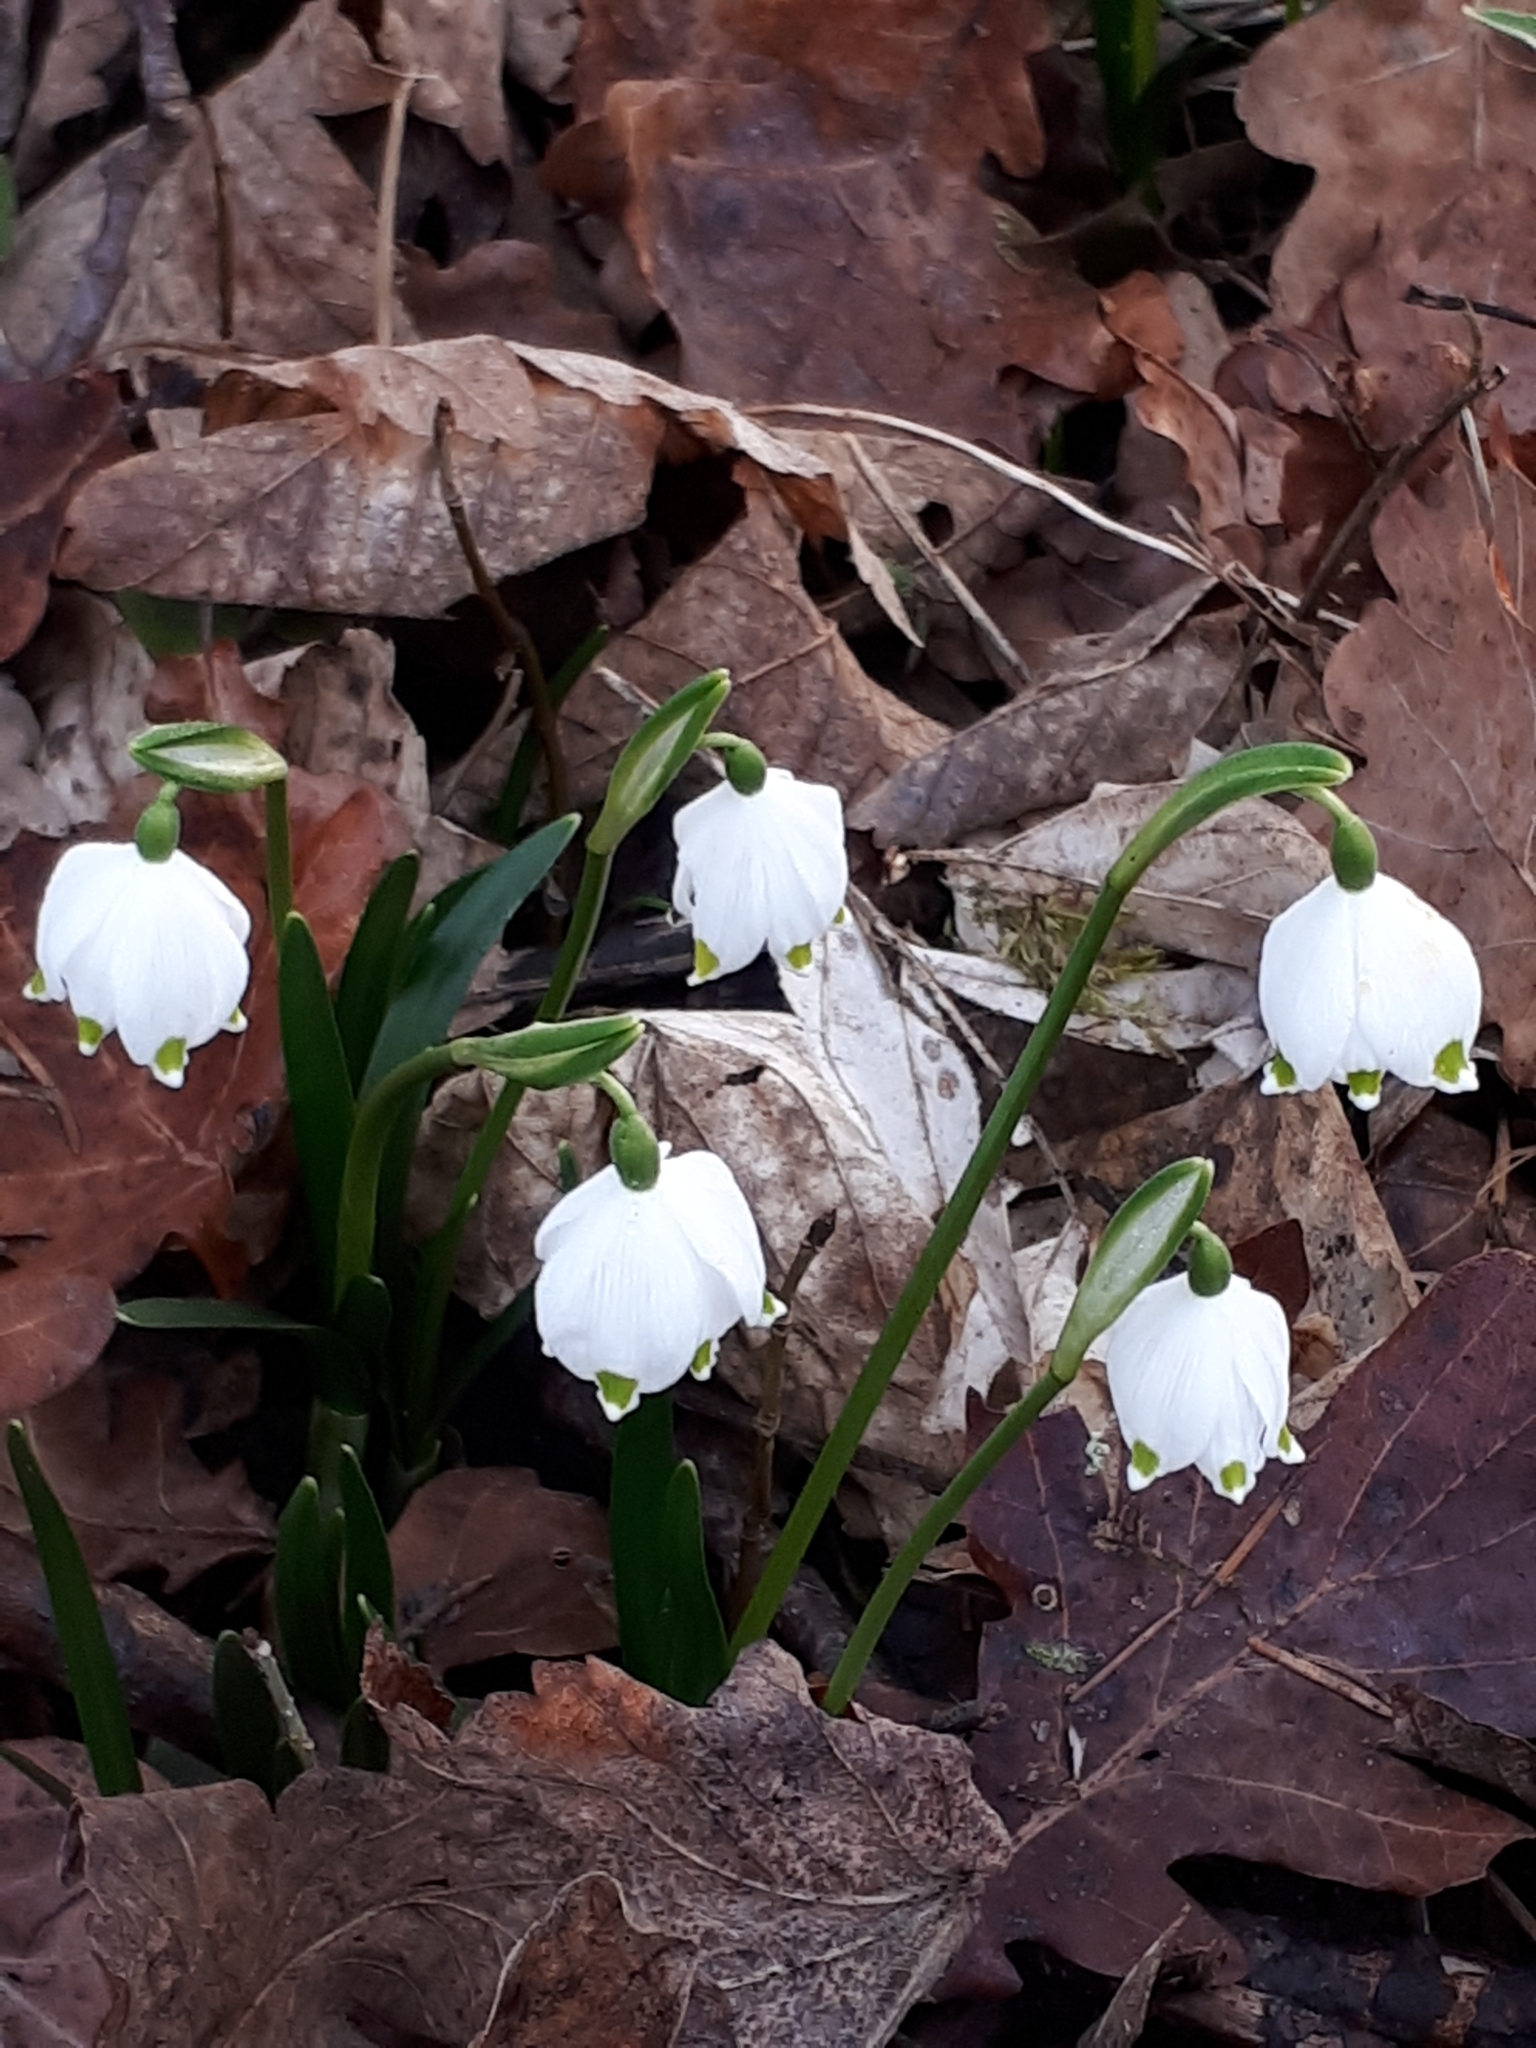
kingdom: Plantae
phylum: Tracheophyta
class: Liliopsida
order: Asparagales
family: Amaryllidaceae
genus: Leucojum
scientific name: Leucojum vernum
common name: Spring snowflake
